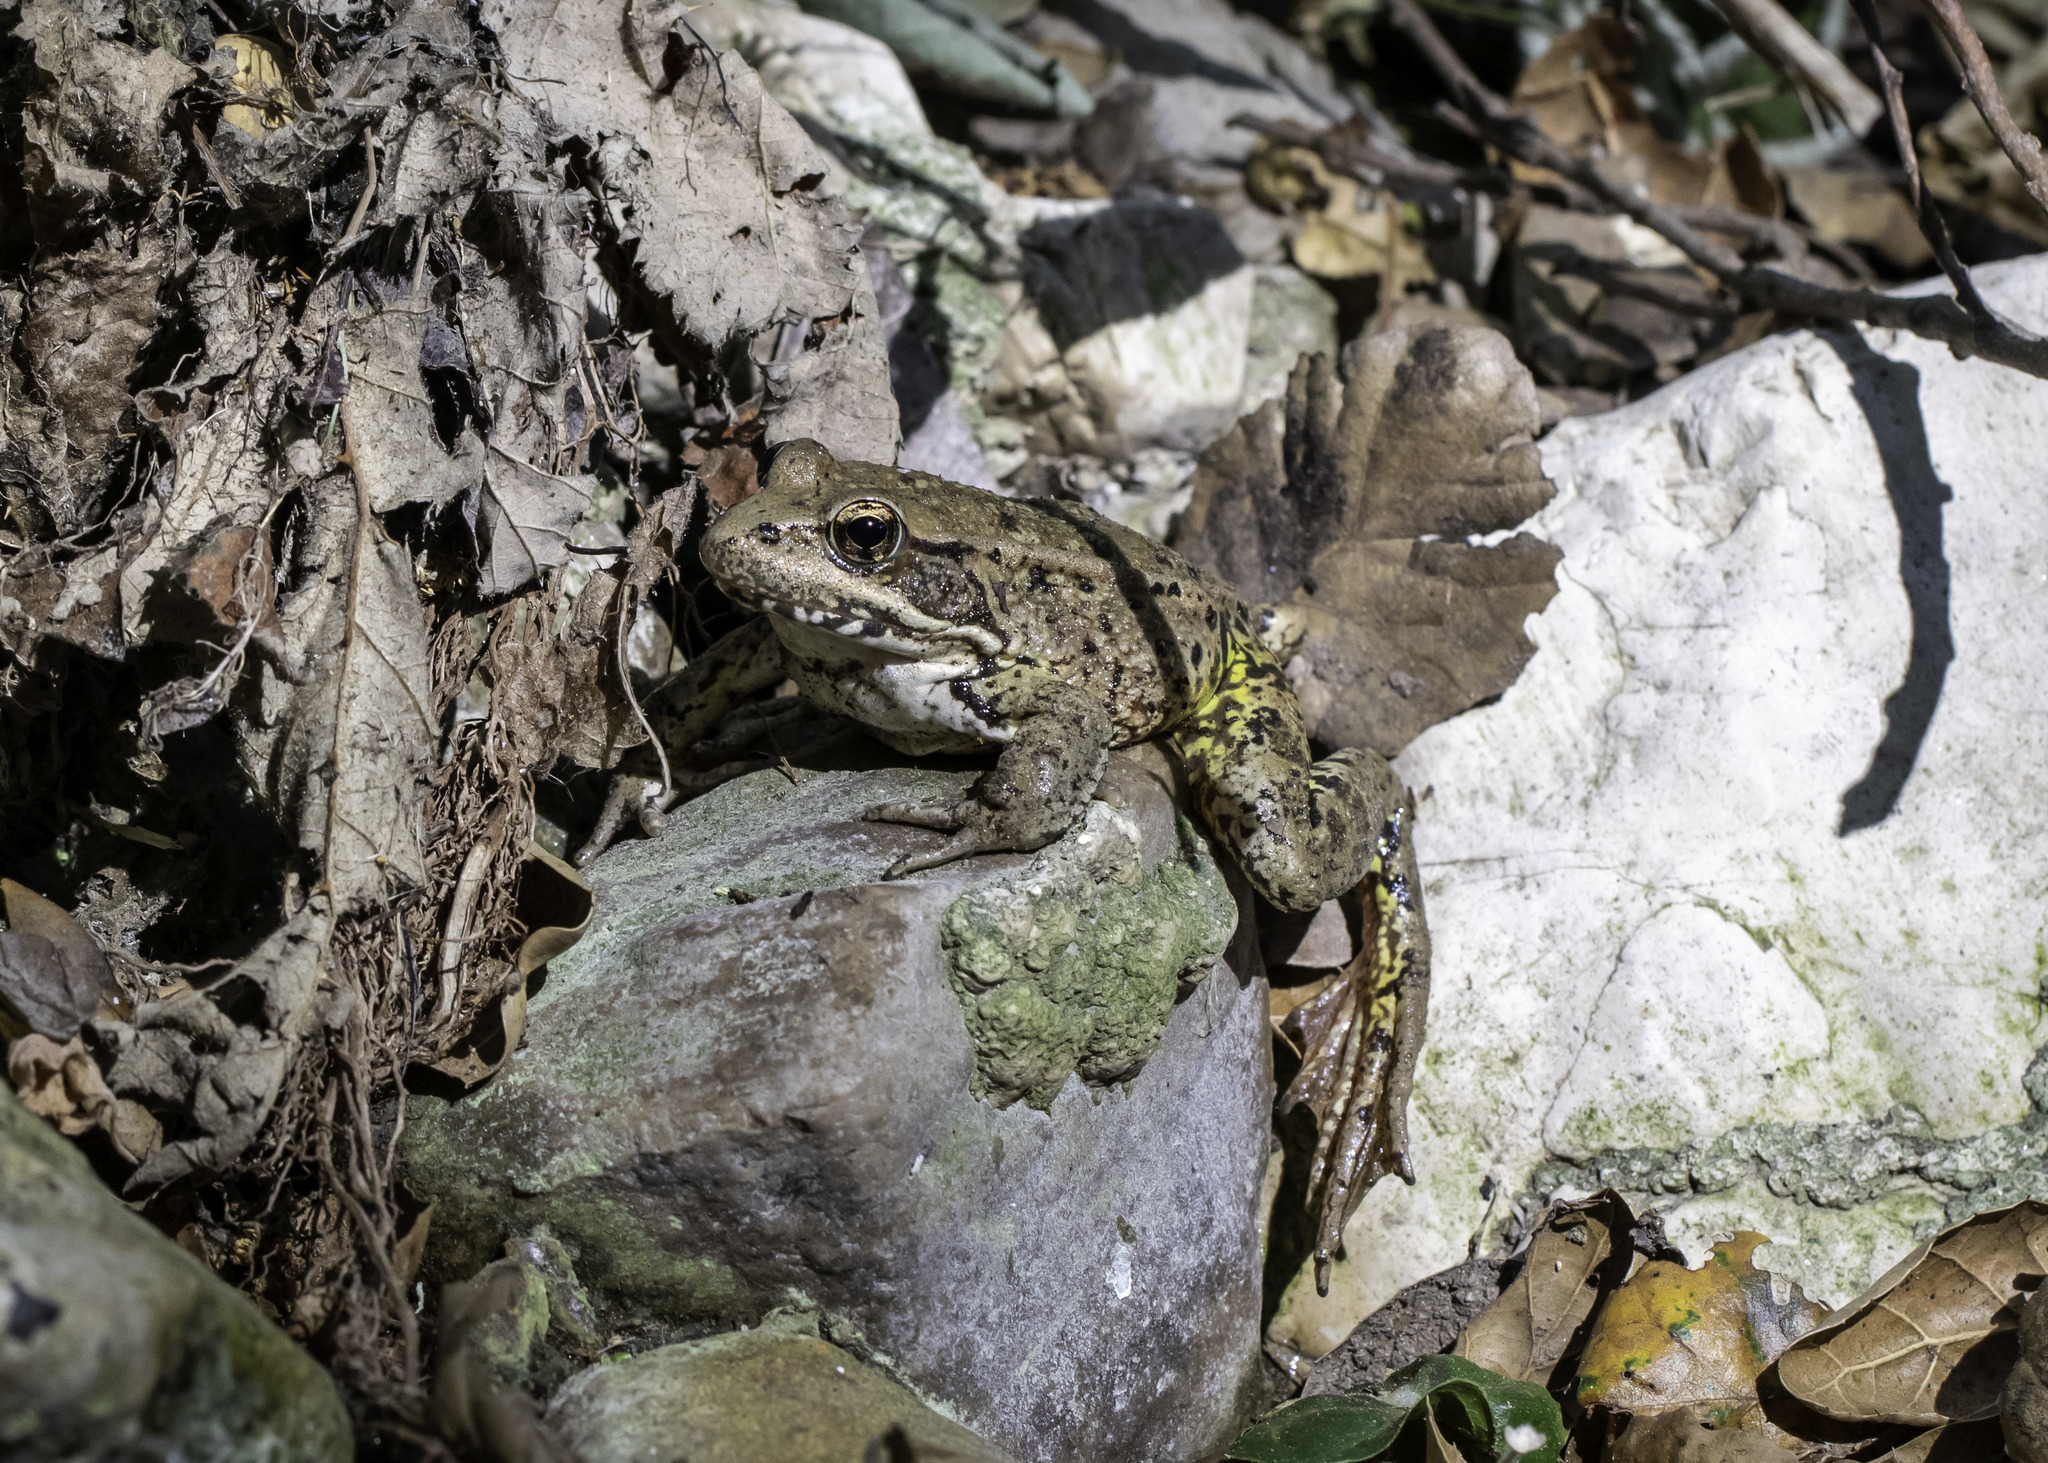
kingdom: Animalia
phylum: Chordata
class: Amphibia
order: Anura
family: Ranidae
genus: Rana
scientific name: Rana draytonii
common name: California red-legged frog
